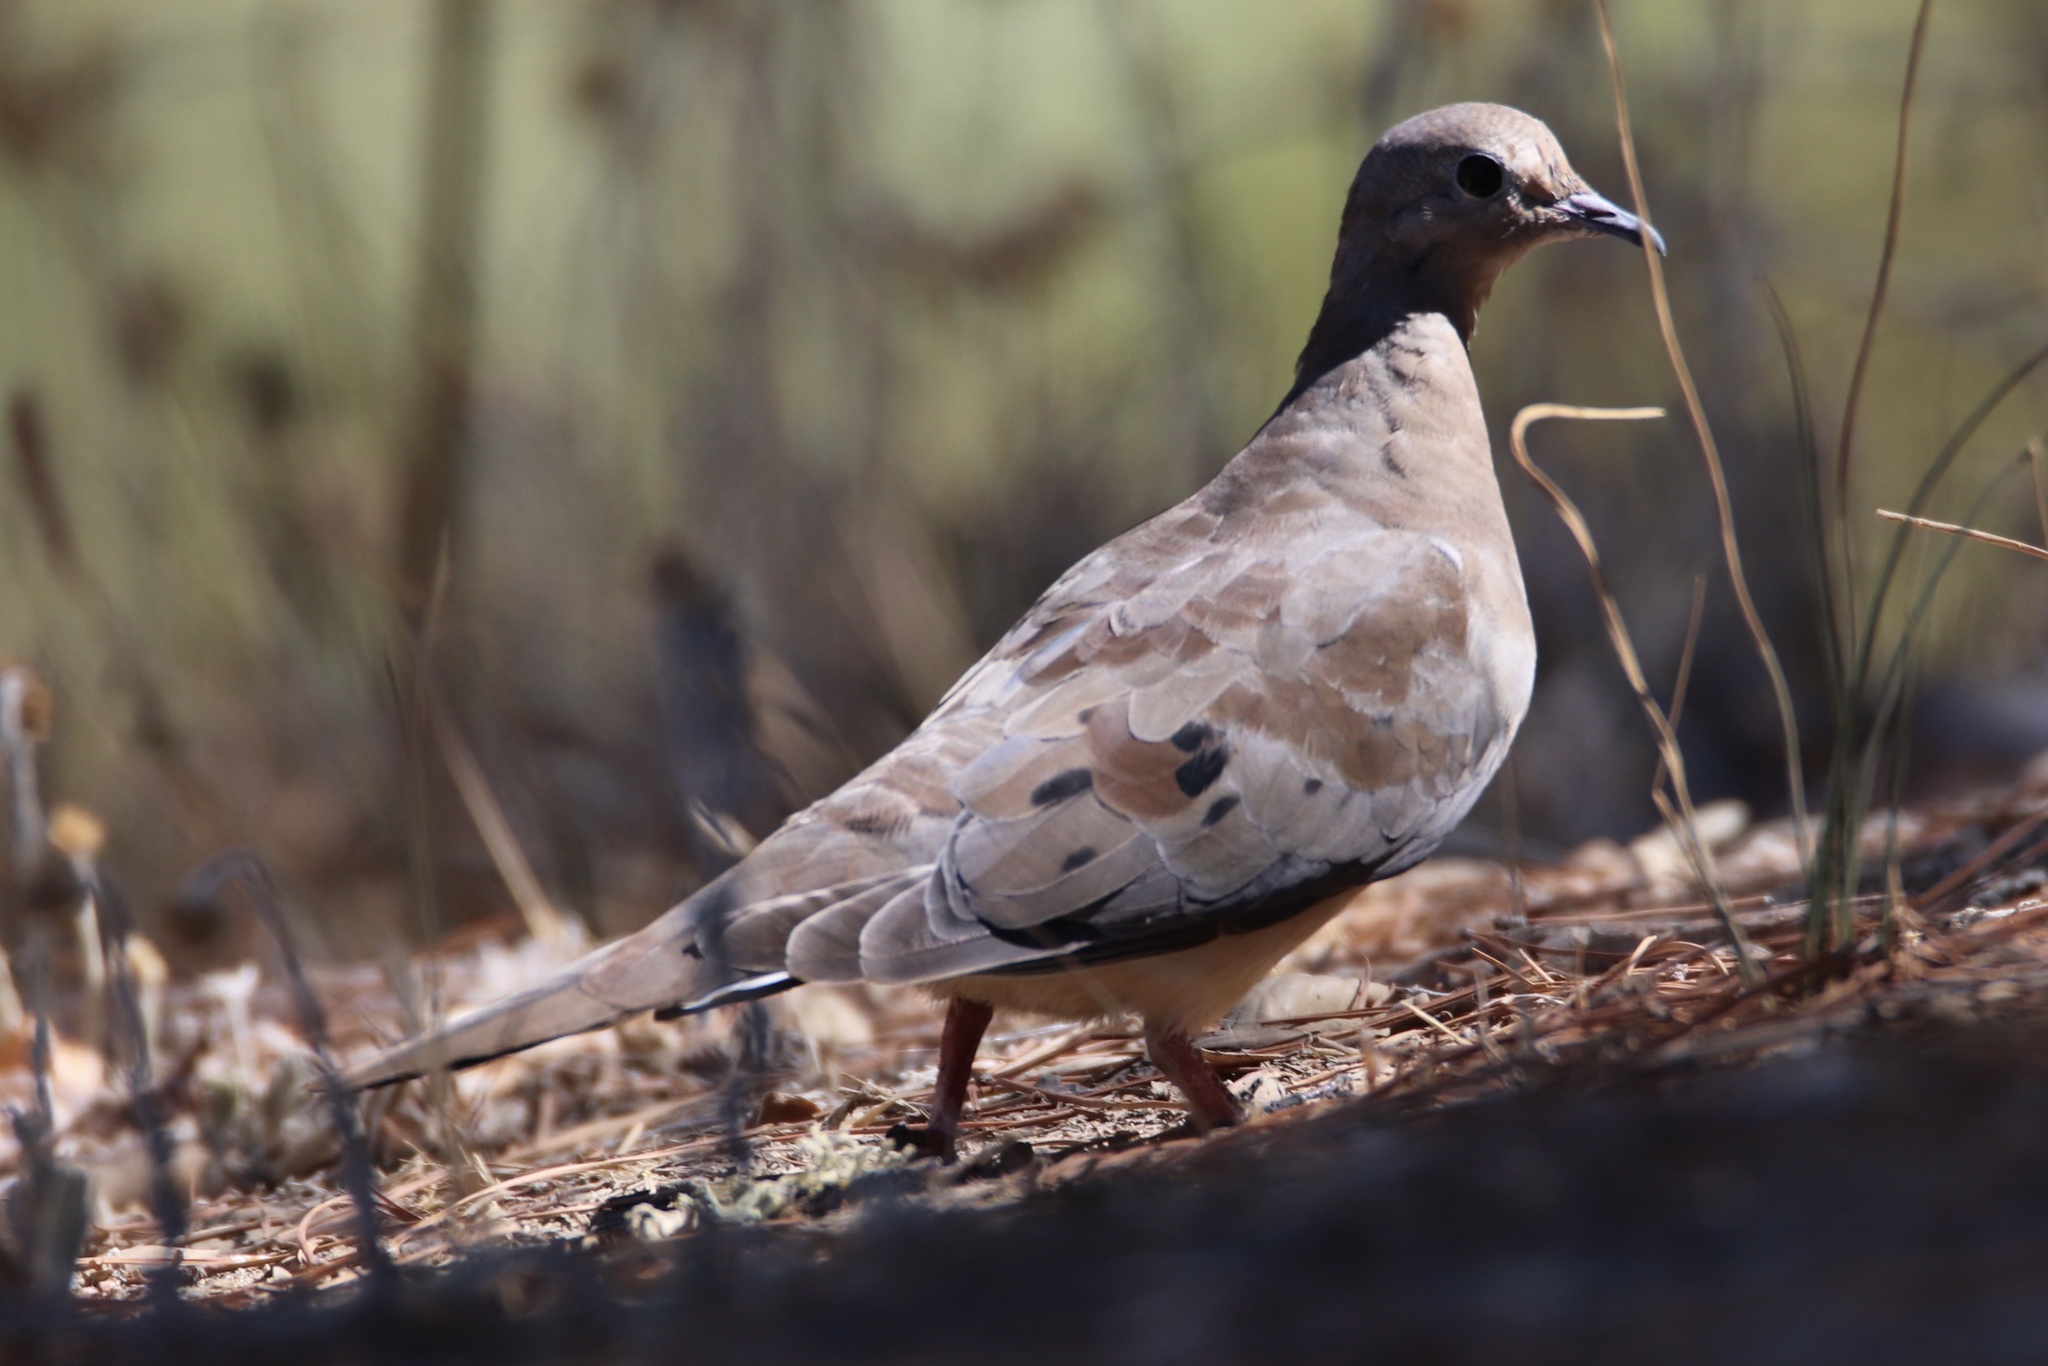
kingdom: Animalia
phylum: Chordata
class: Aves
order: Columbiformes
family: Columbidae
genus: Zenaida
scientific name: Zenaida macroura
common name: Mourning dove
